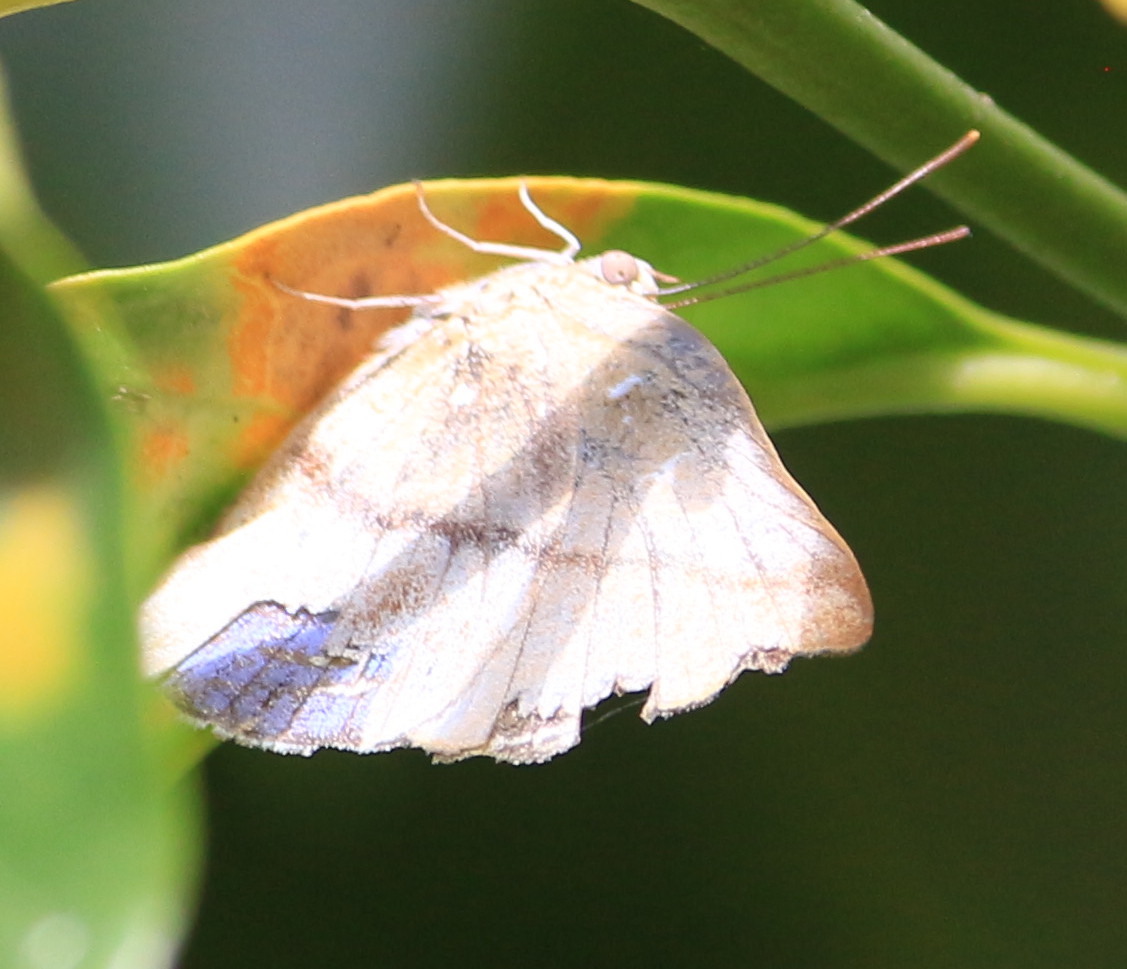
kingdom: Animalia
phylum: Arthropoda
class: Insecta
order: Lepidoptera
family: Nymphalidae
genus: Ethope
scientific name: Ethope
